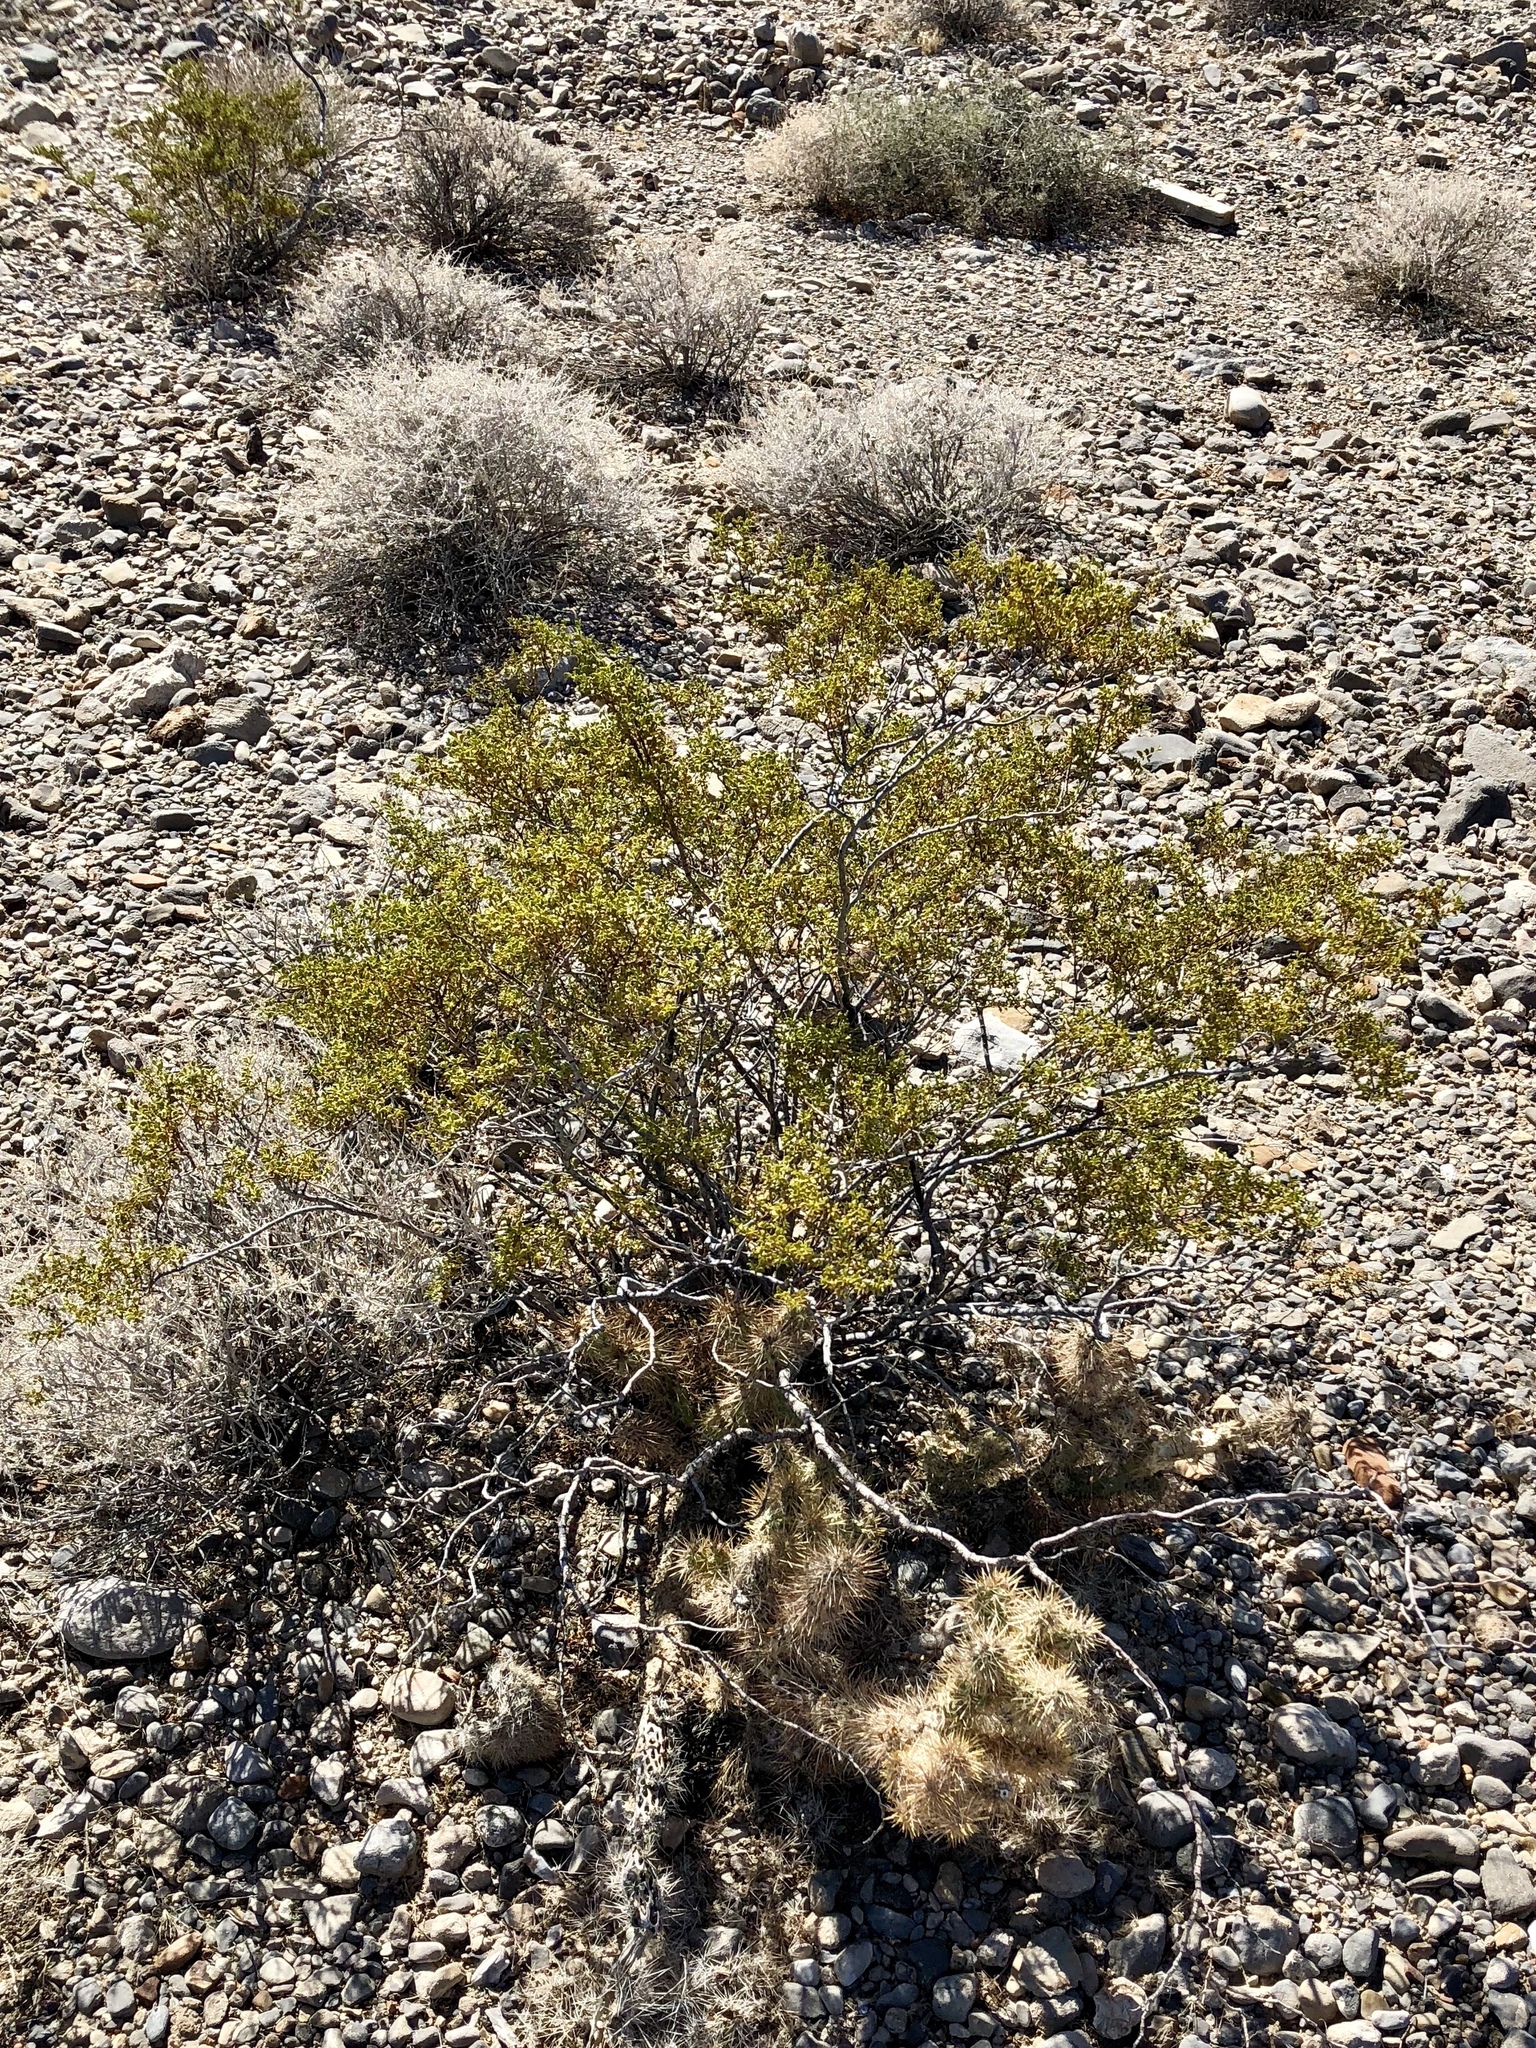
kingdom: Plantae
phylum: Tracheophyta
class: Magnoliopsida
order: Zygophyllales
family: Zygophyllaceae
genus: Larrea
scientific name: Larrea tridentata
